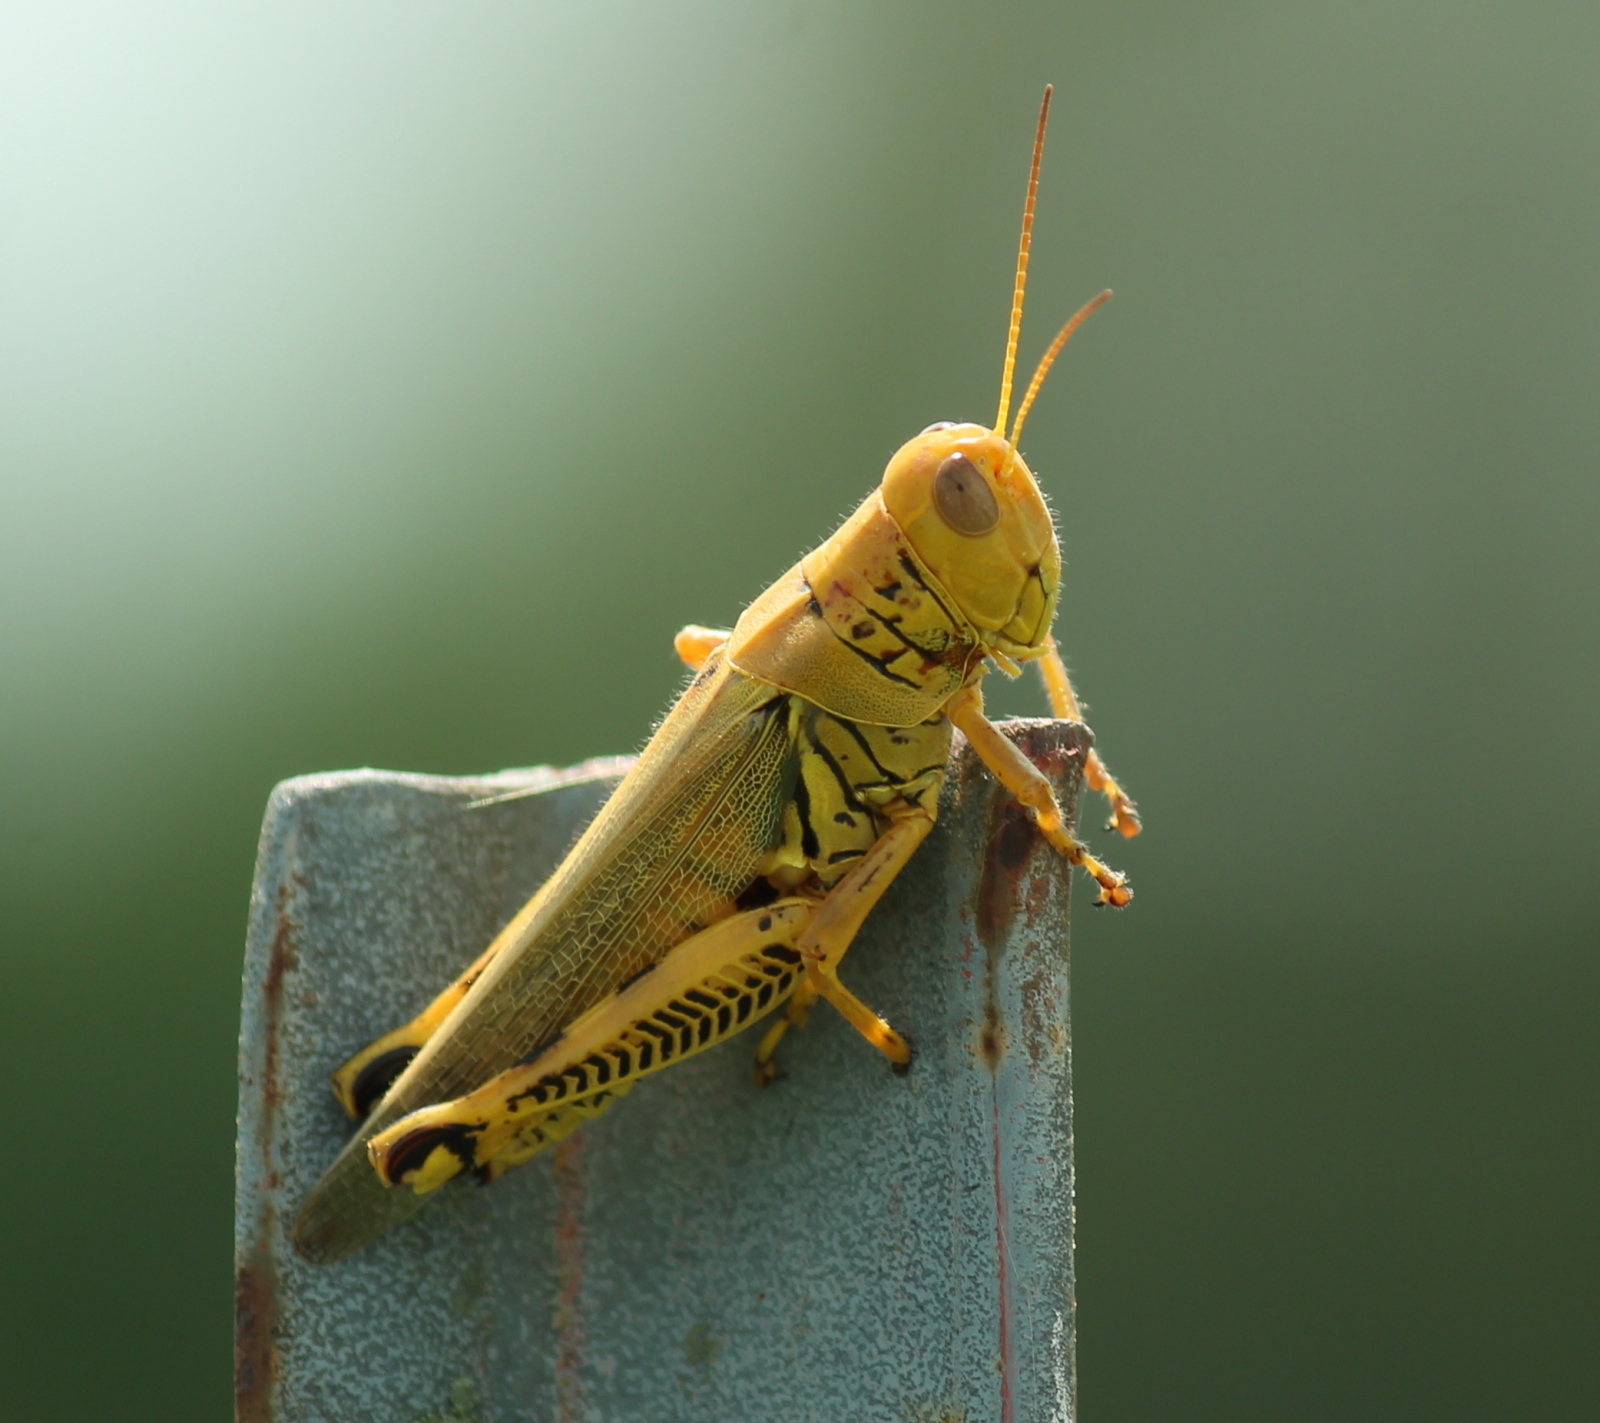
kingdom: Animalia
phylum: Arthropoda
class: Insecta
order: Orthoptera
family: Acrididae
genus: Melanoplus
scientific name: Melanoplus differentialis
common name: Differential grasshopper
